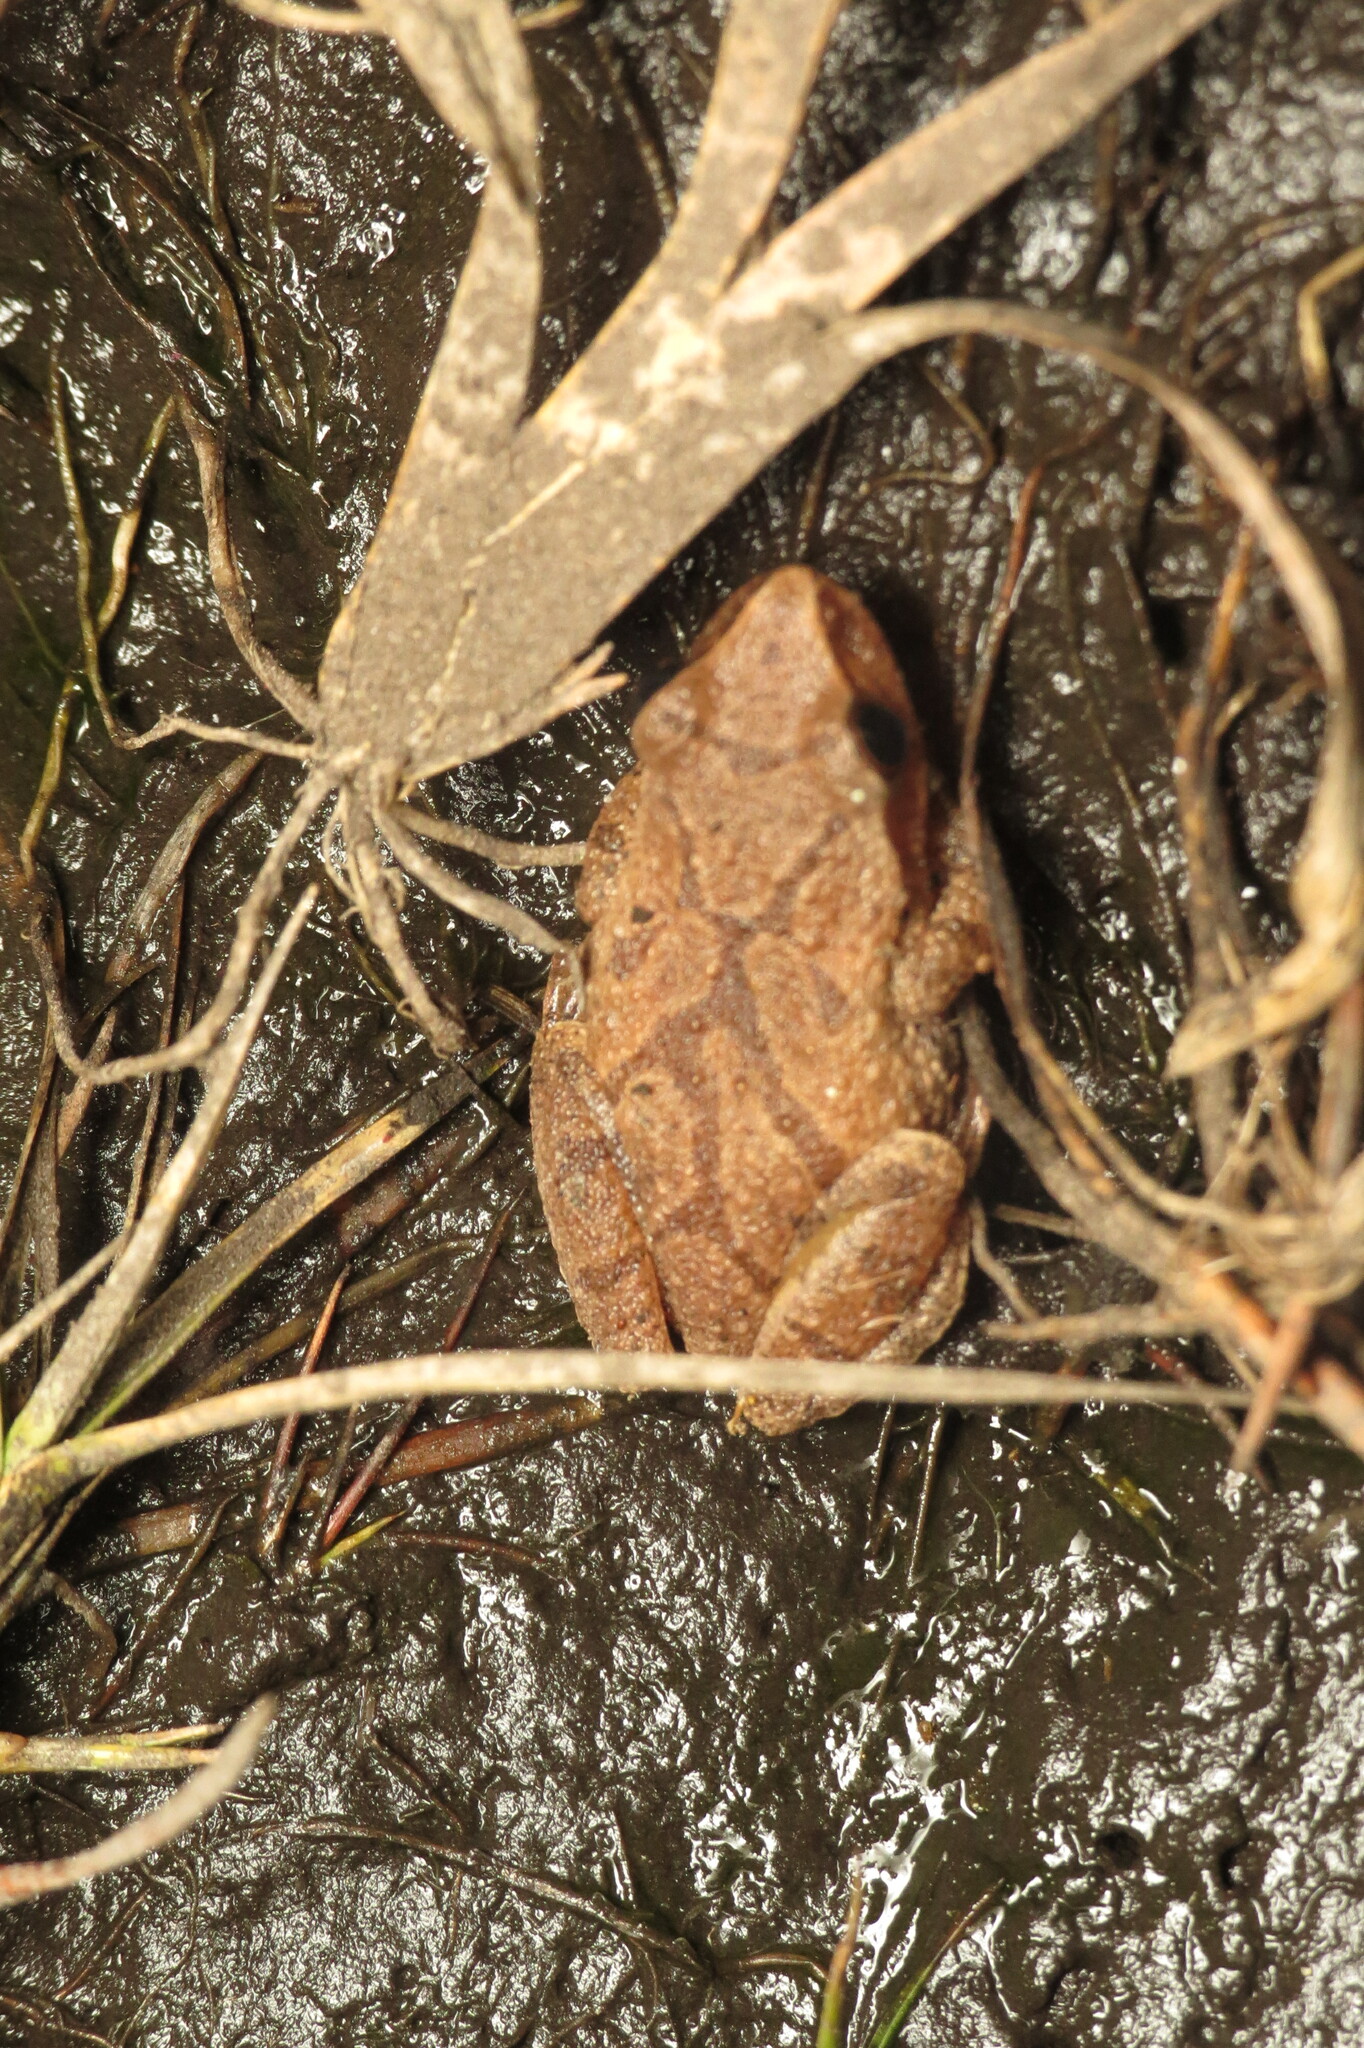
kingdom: Animalia
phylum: Chordata
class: Amphibia
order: Anura
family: Hylidae
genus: Pseudacris
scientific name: Pseudacris crucifer
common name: Spring peeper
